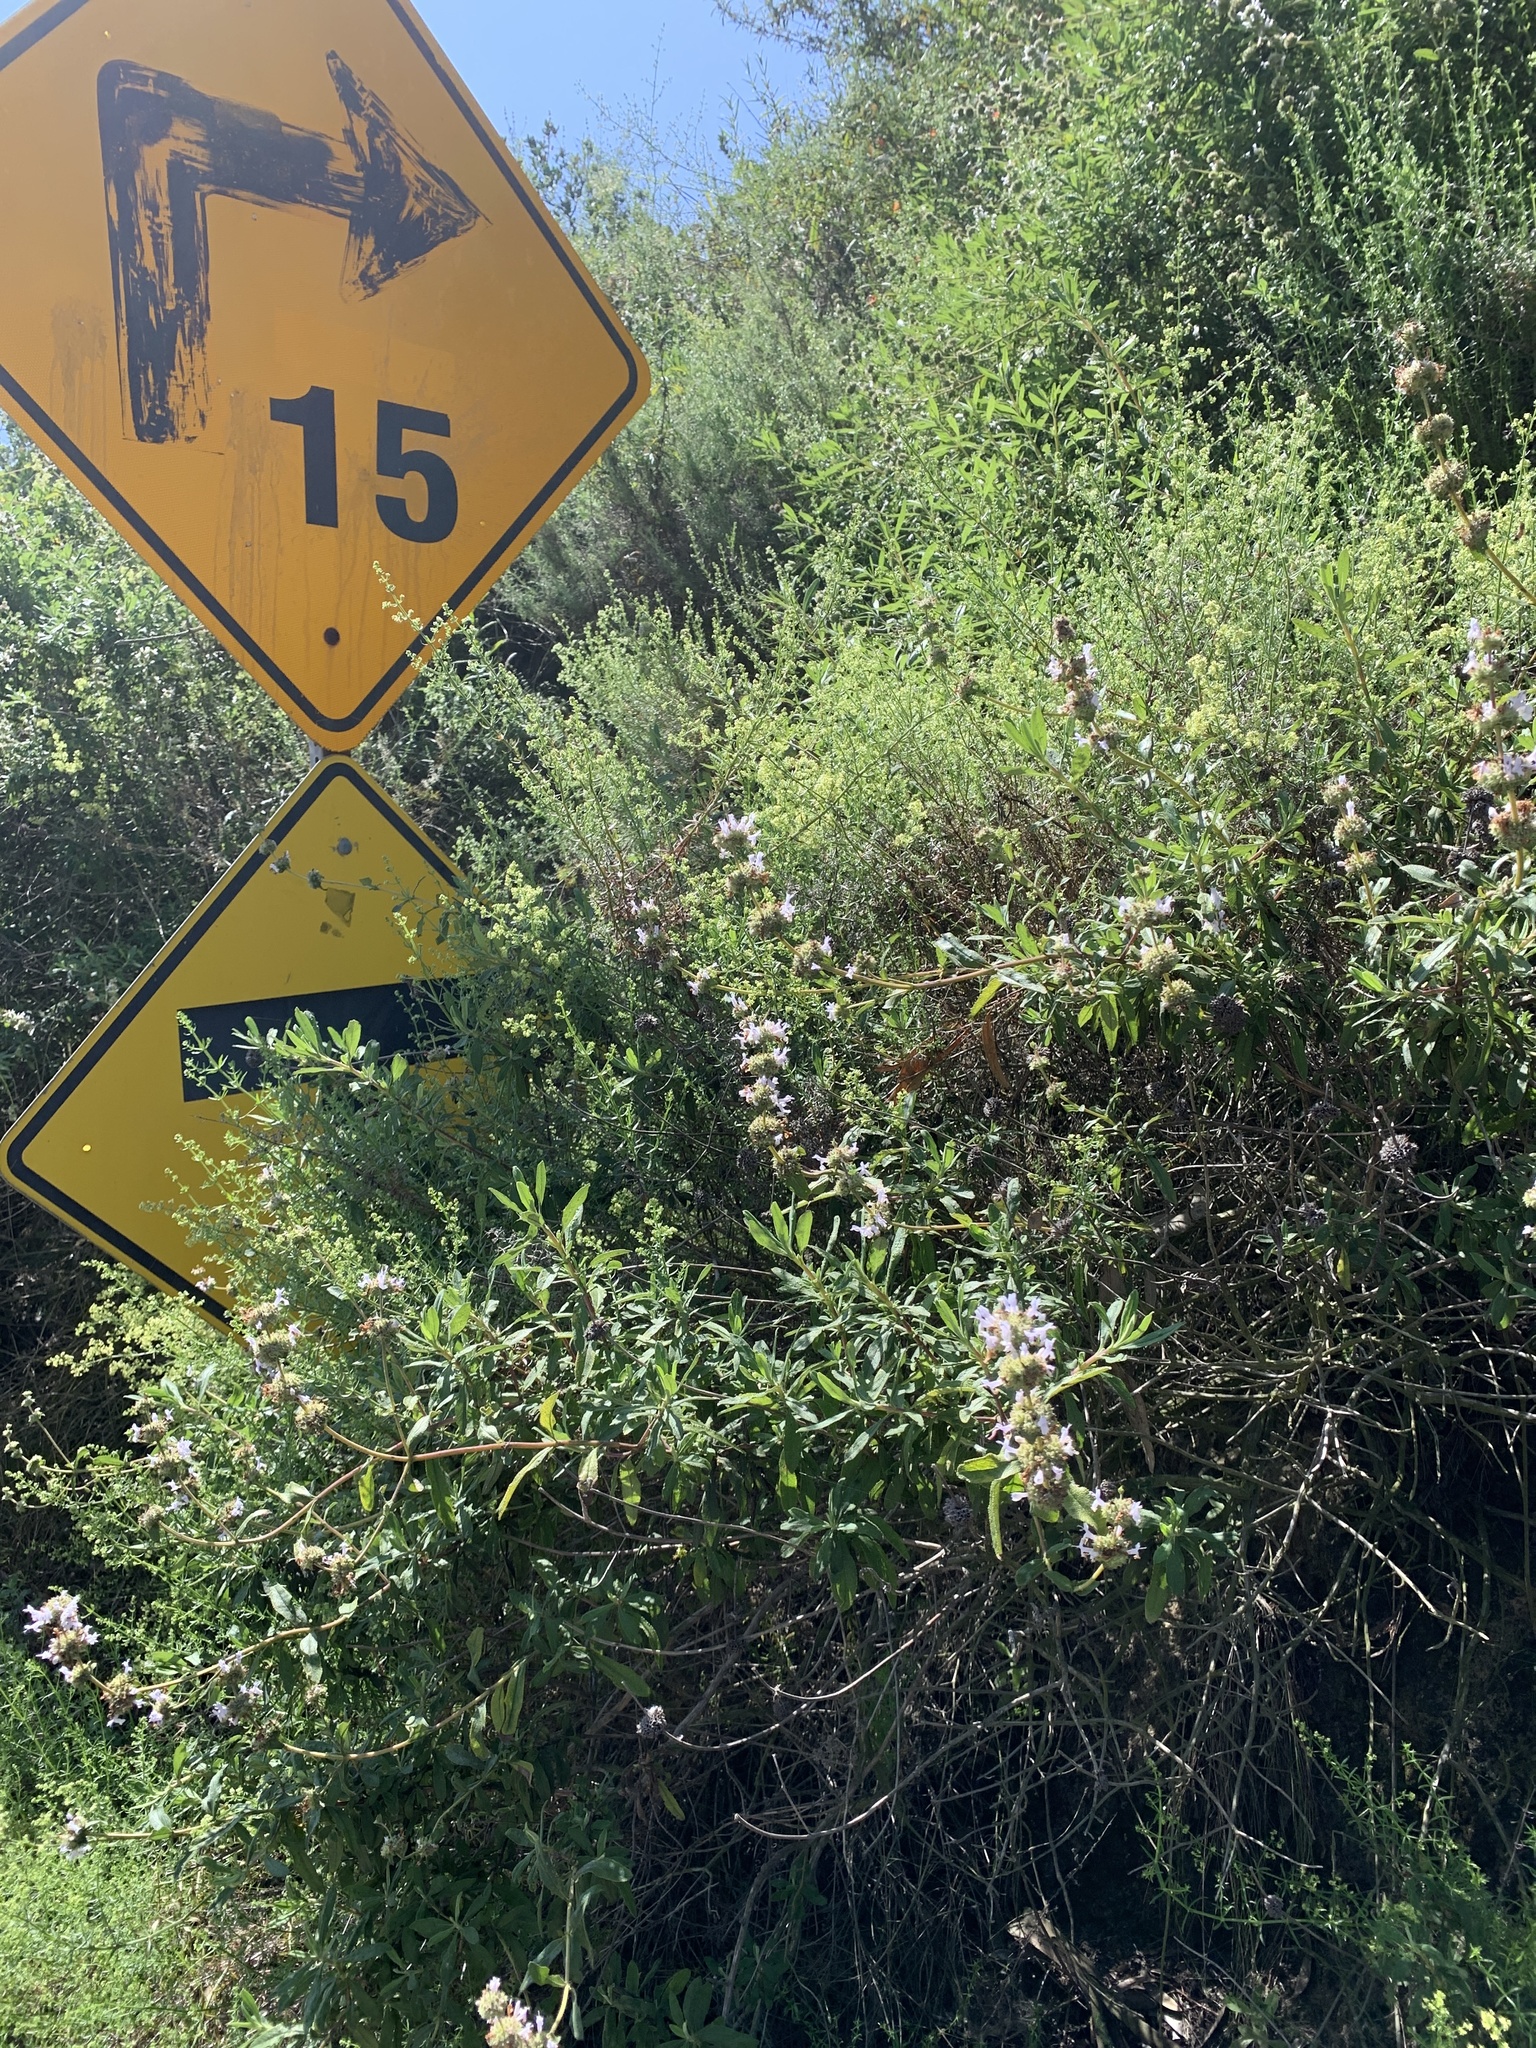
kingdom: Plantae
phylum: Tracheophyta
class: Magnoliopsida
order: Lamiales
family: Lamiaceae
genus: Salvia
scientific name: Salvia mellifera
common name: Black sage
